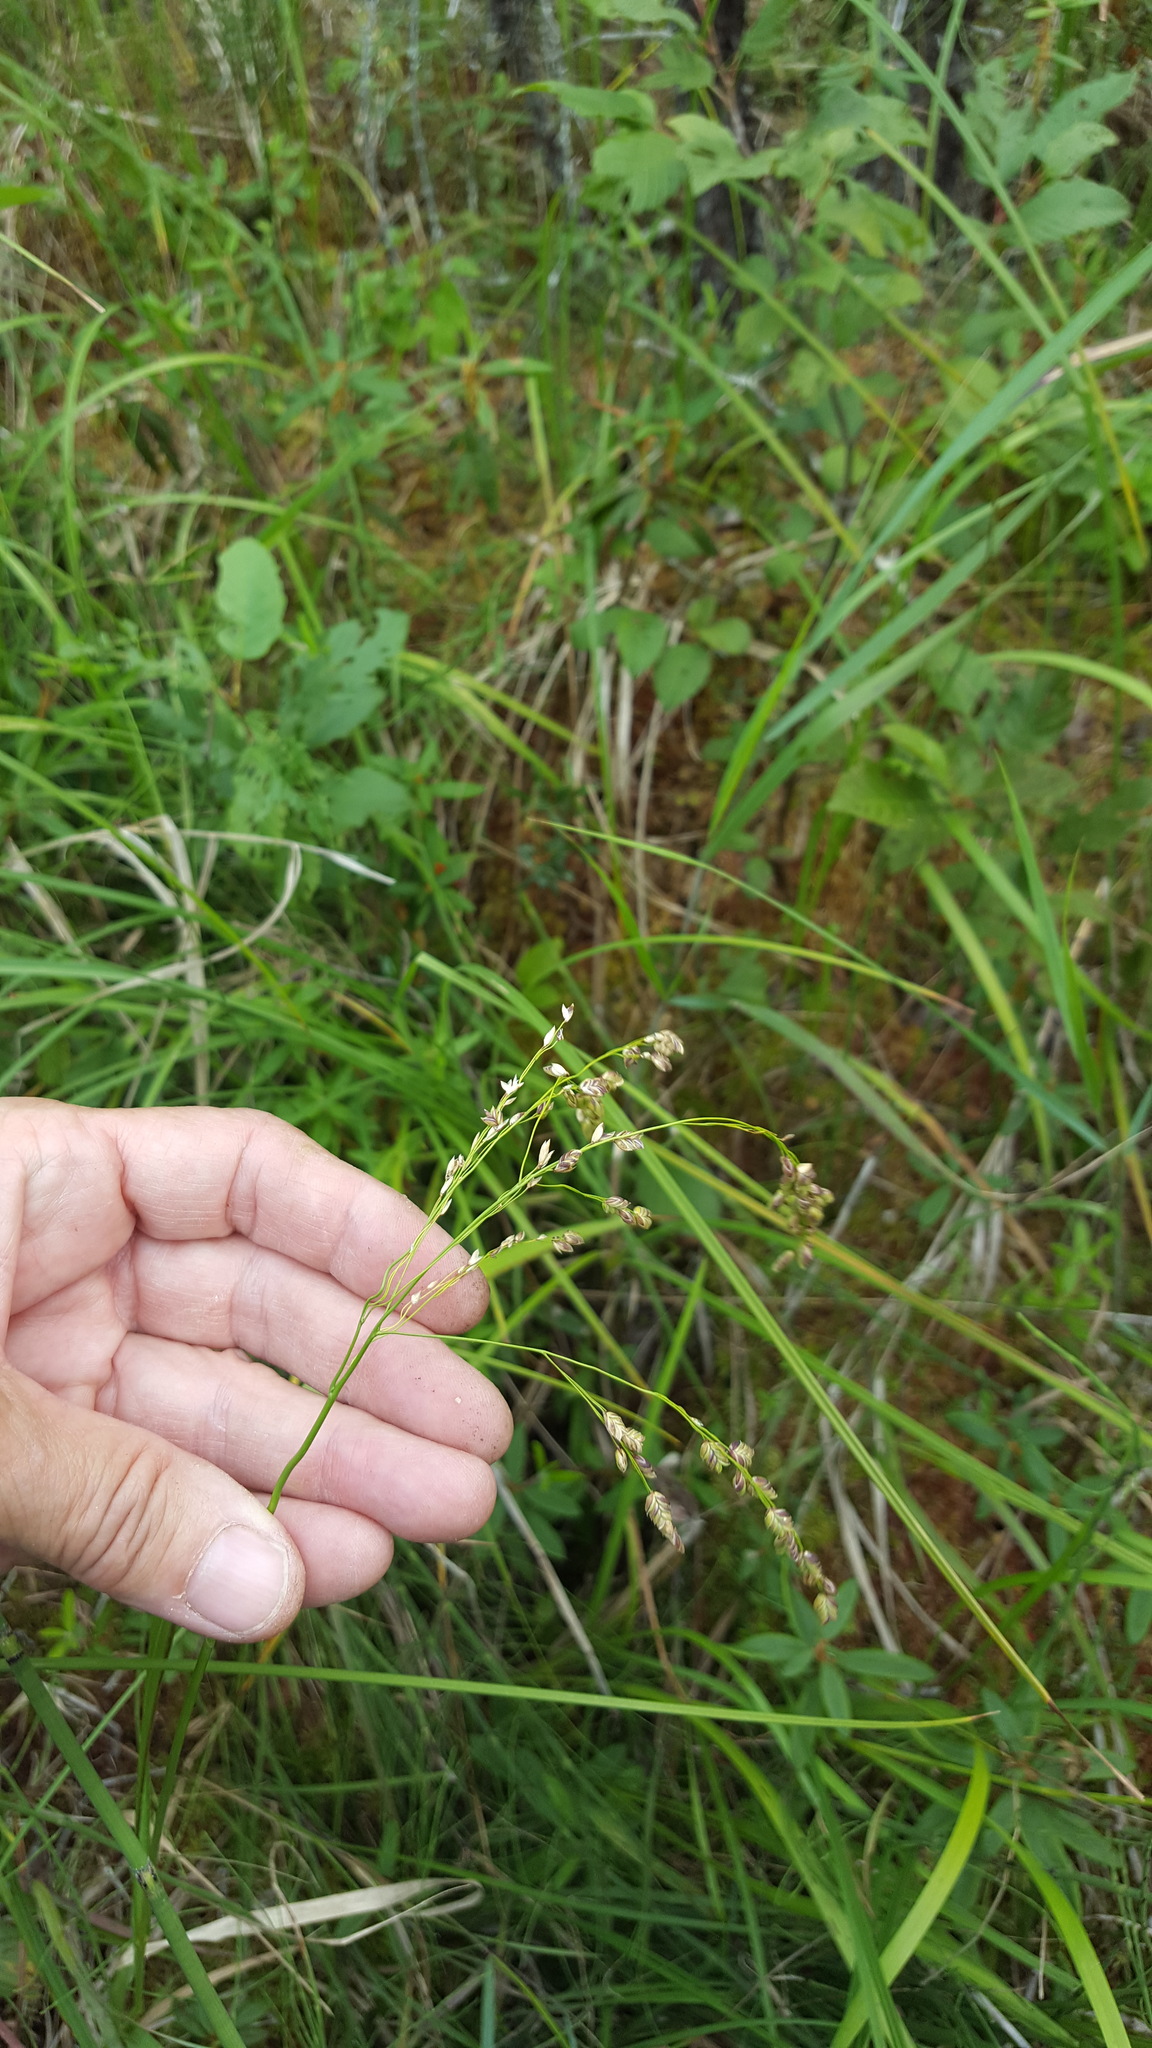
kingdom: Plantae
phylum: Tracheophyta
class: Liliopsida
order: Poales
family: Poaceae
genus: Glyceria
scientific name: Glyceria canadensis
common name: Canada mannagrass
